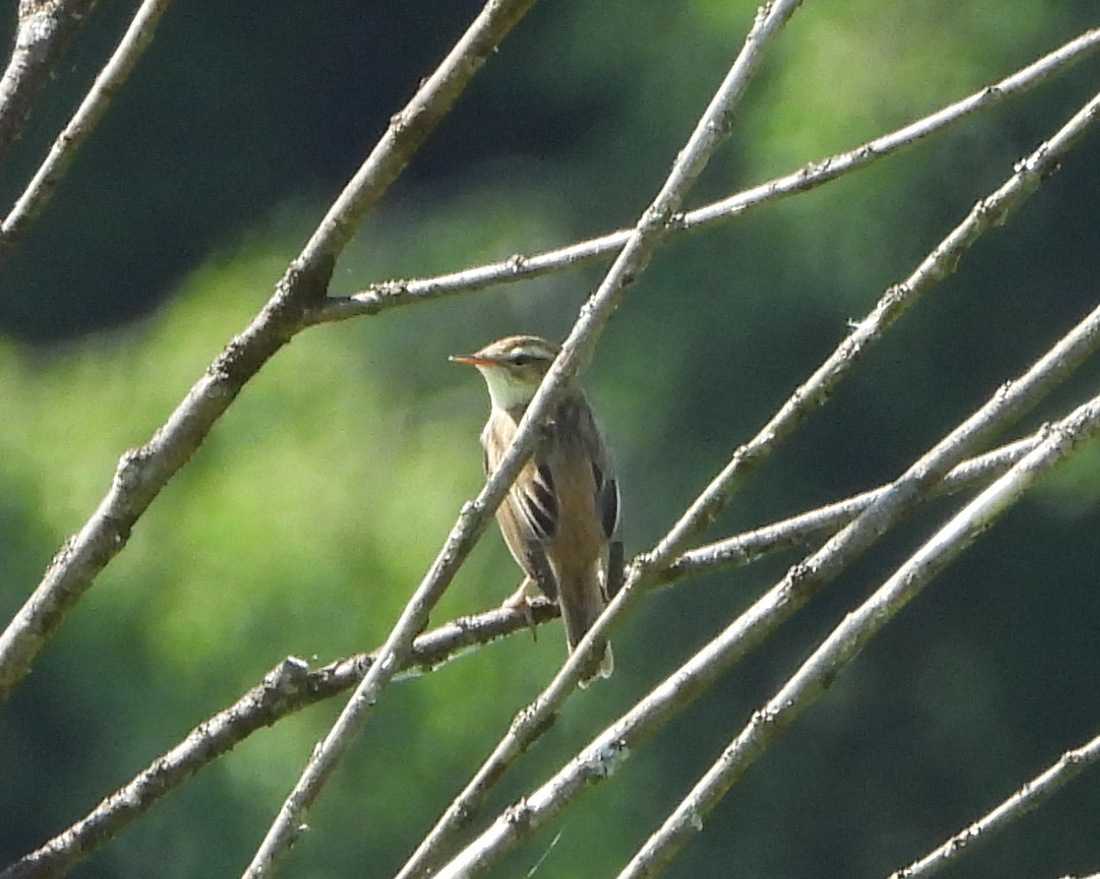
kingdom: Animalia
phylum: Chordata
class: Aves
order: Passeriformes
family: Acrocephalidae
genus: Acrocephalus
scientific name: Acrocephalus schoenobaenus
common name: Sedge warbler
